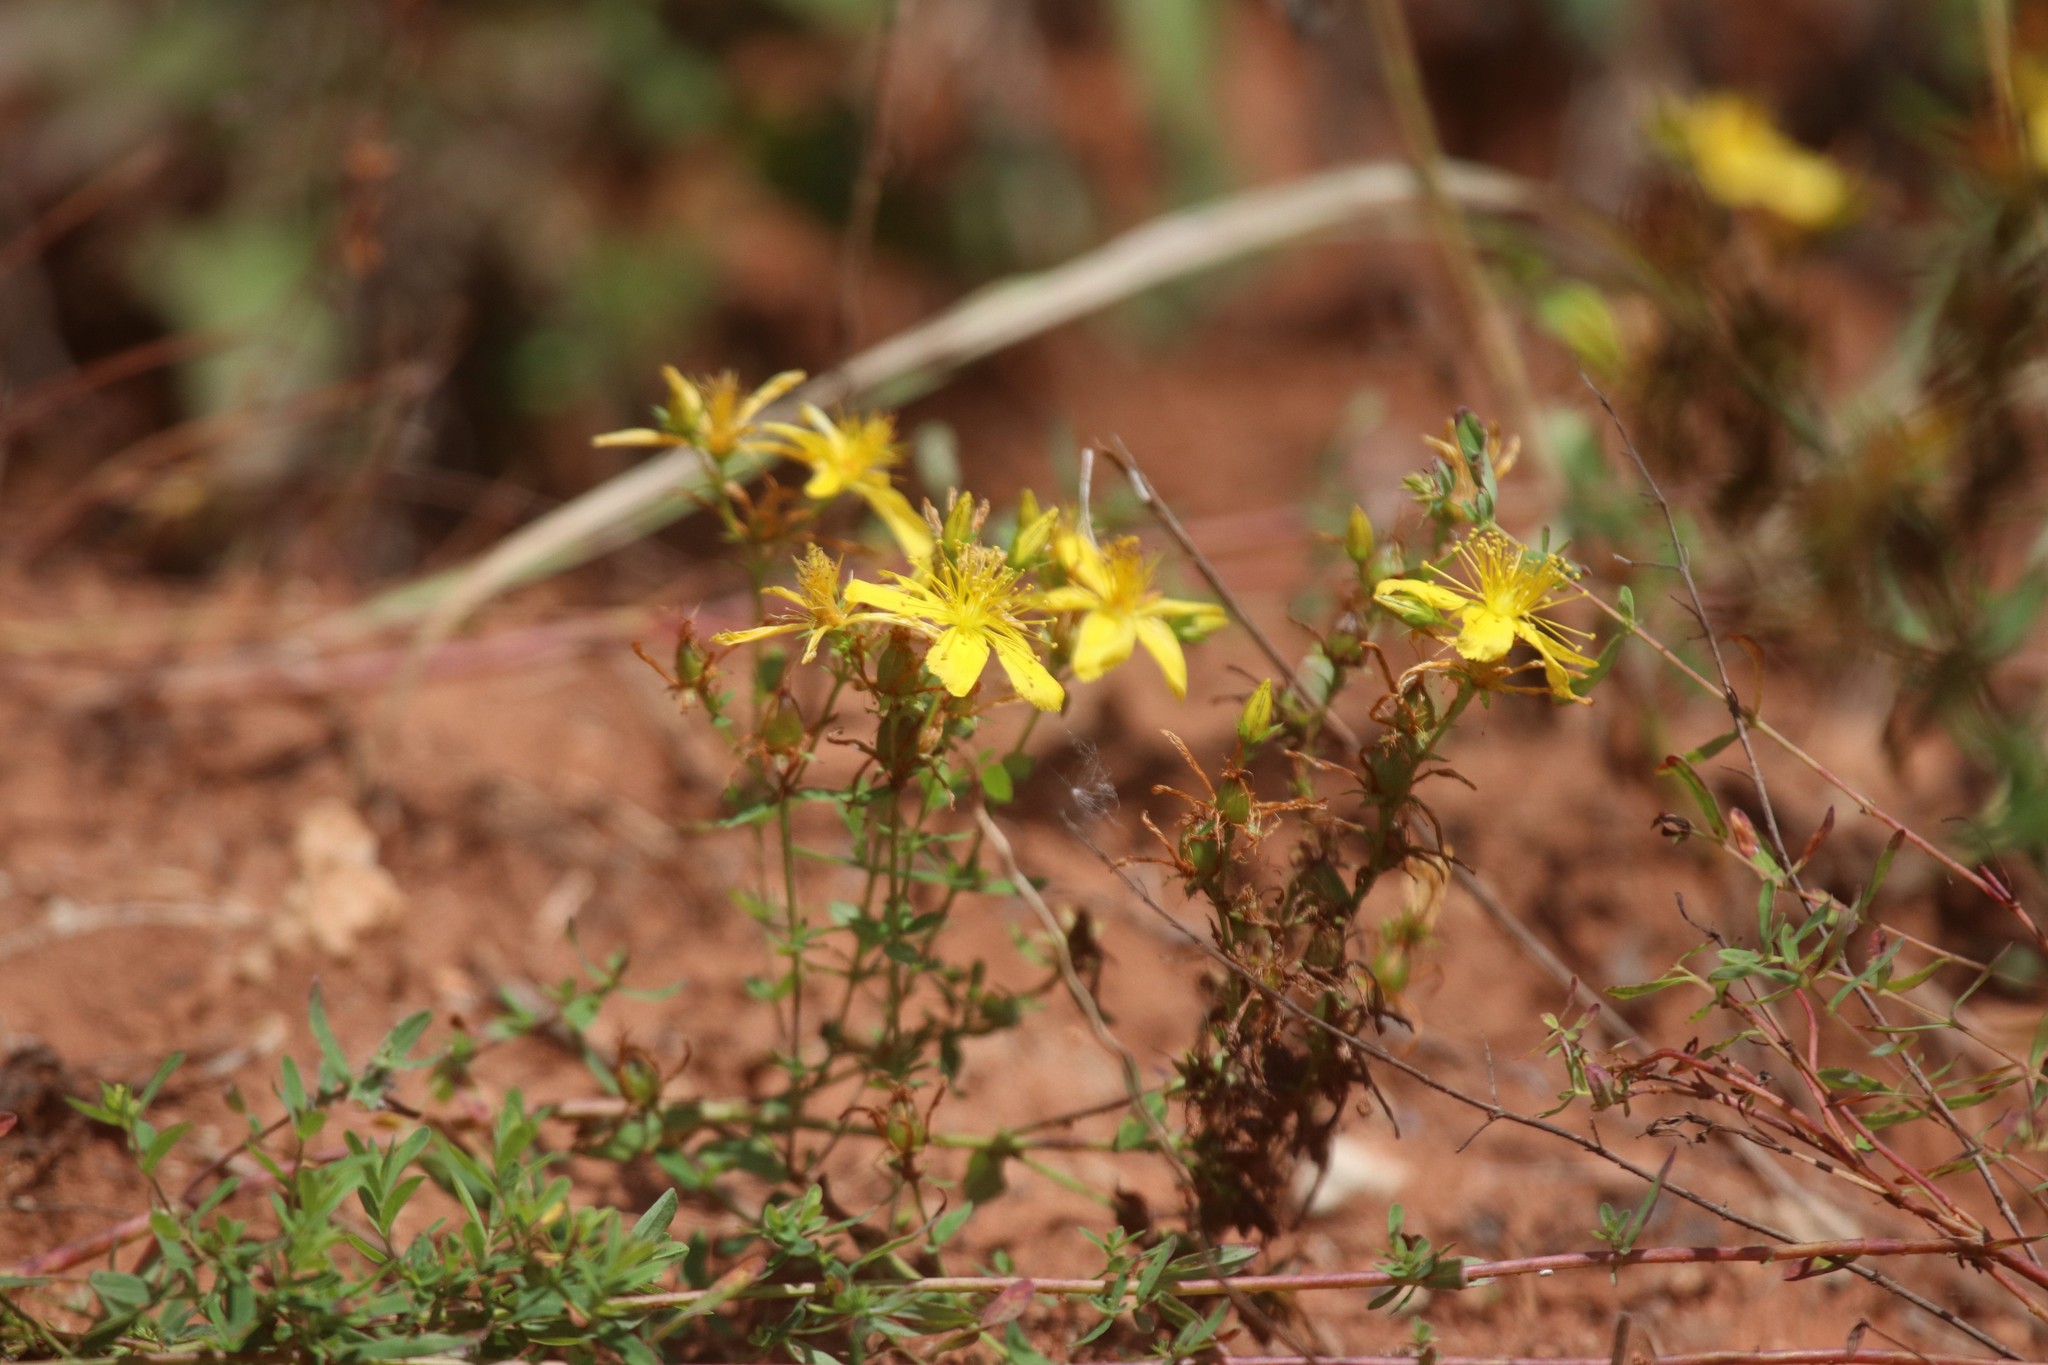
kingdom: Plantae
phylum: Tracheophyta
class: Magnoliopsida
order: Malpighiales
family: Hypericaceae
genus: Hypericum
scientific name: Hypericum perforatum
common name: Common st. johnswort
